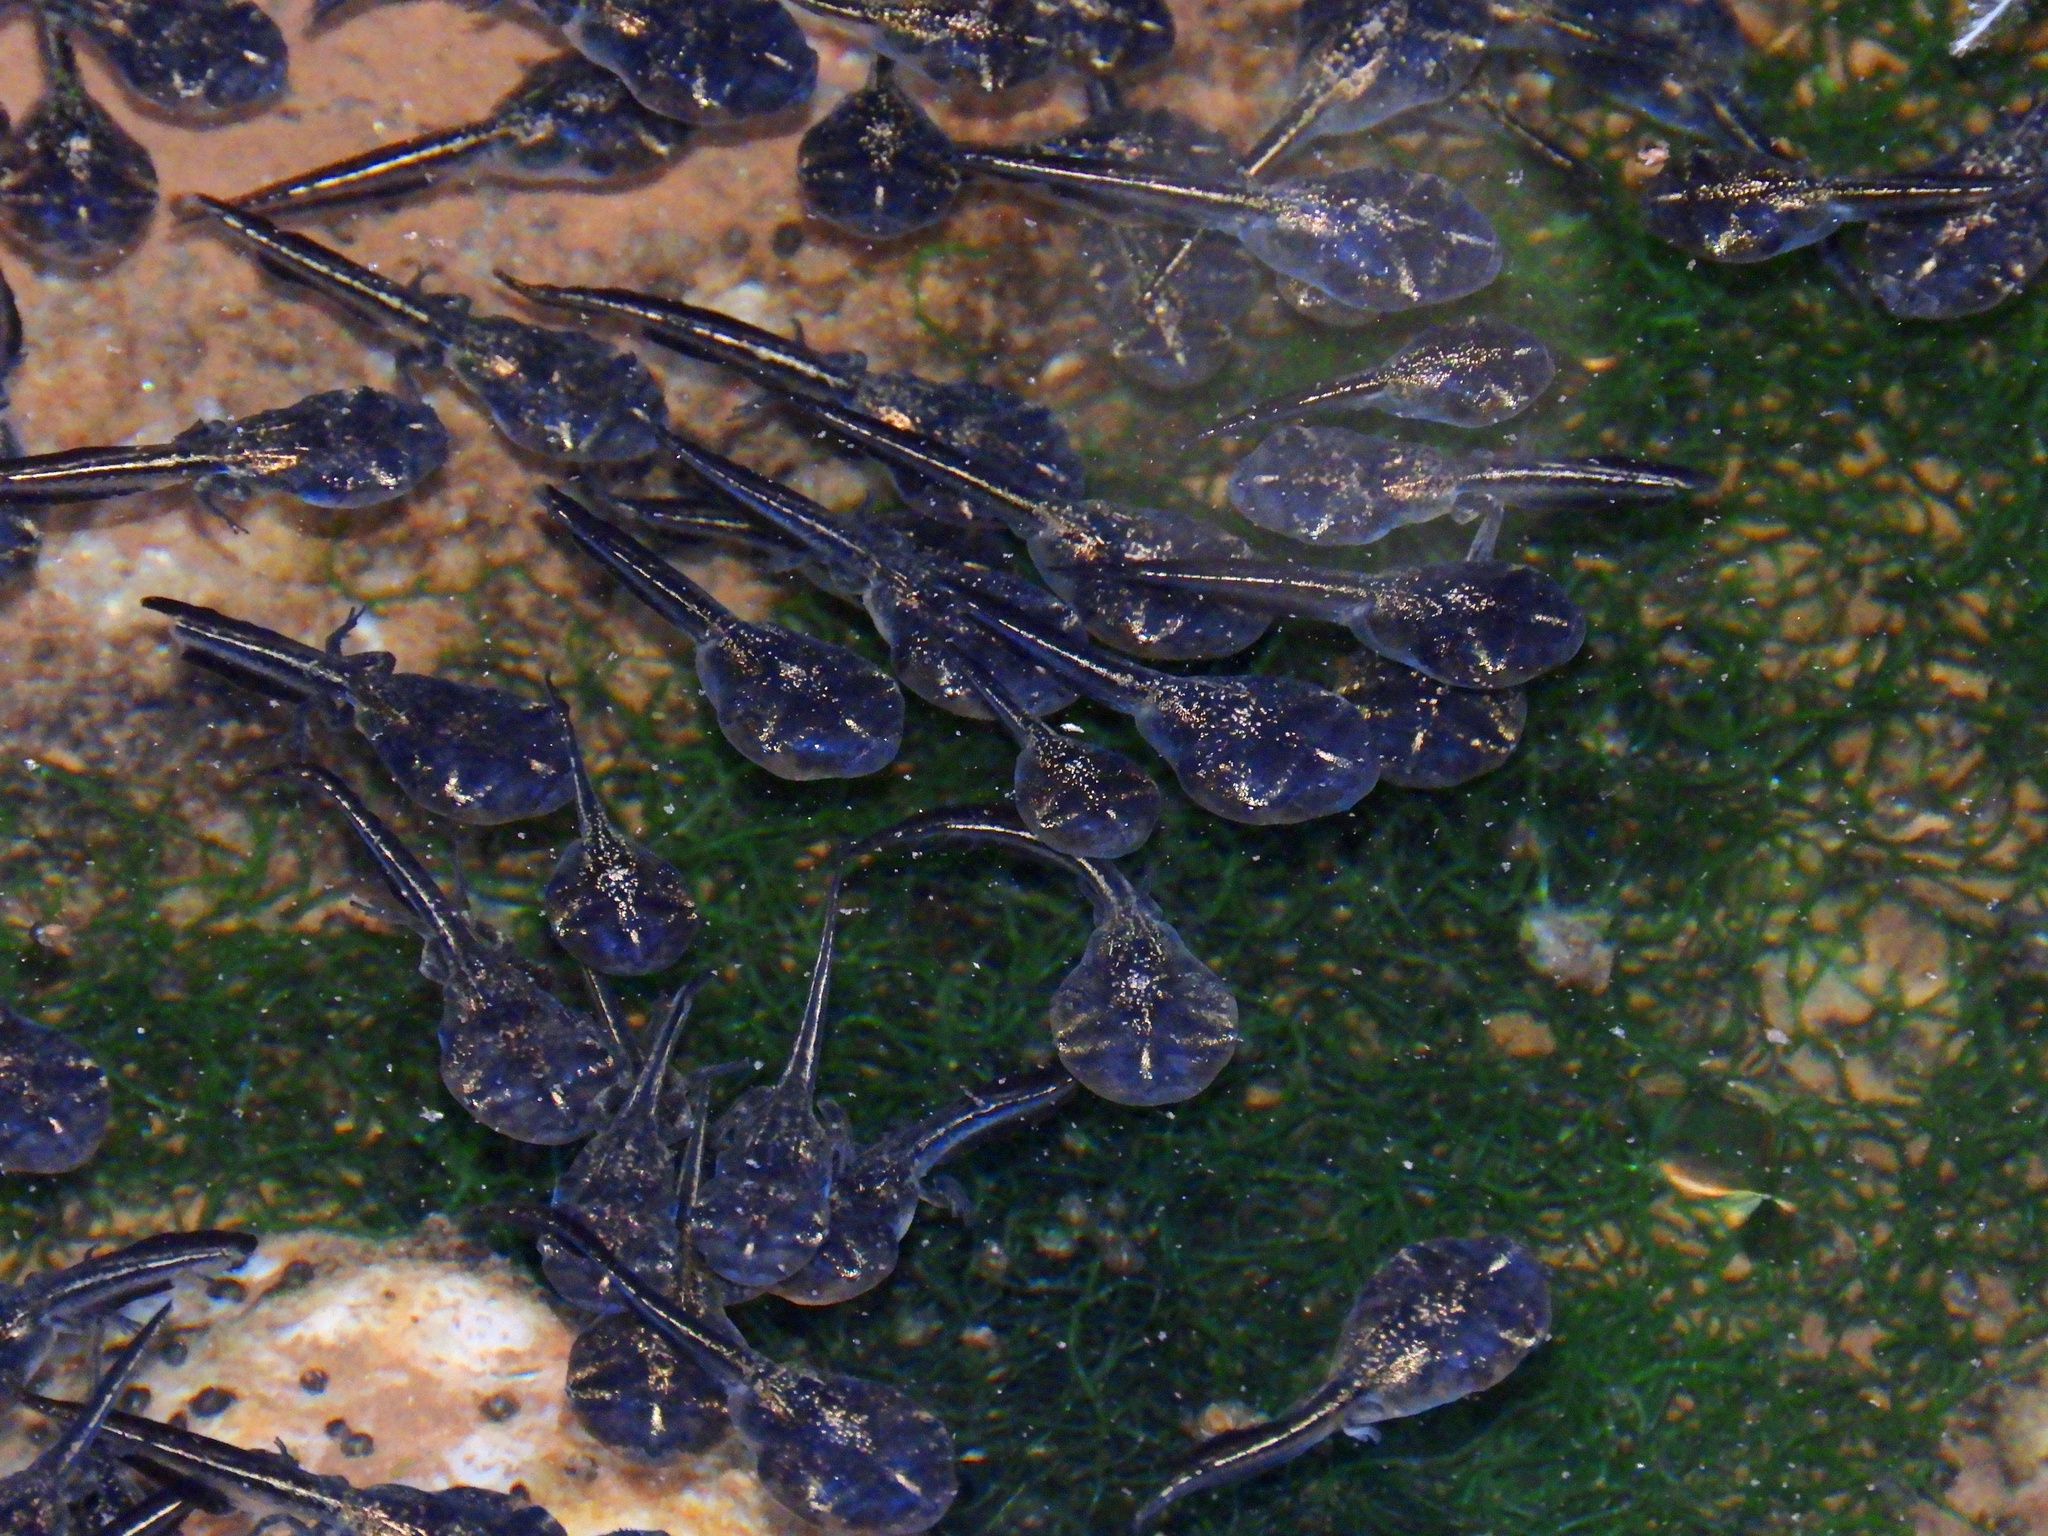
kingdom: Animalia
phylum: Chordata
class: Amphibia
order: Anura
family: Microhylidae
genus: Phrynomantis
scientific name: Phrynomantis annectens
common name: Marbled rubber frog
